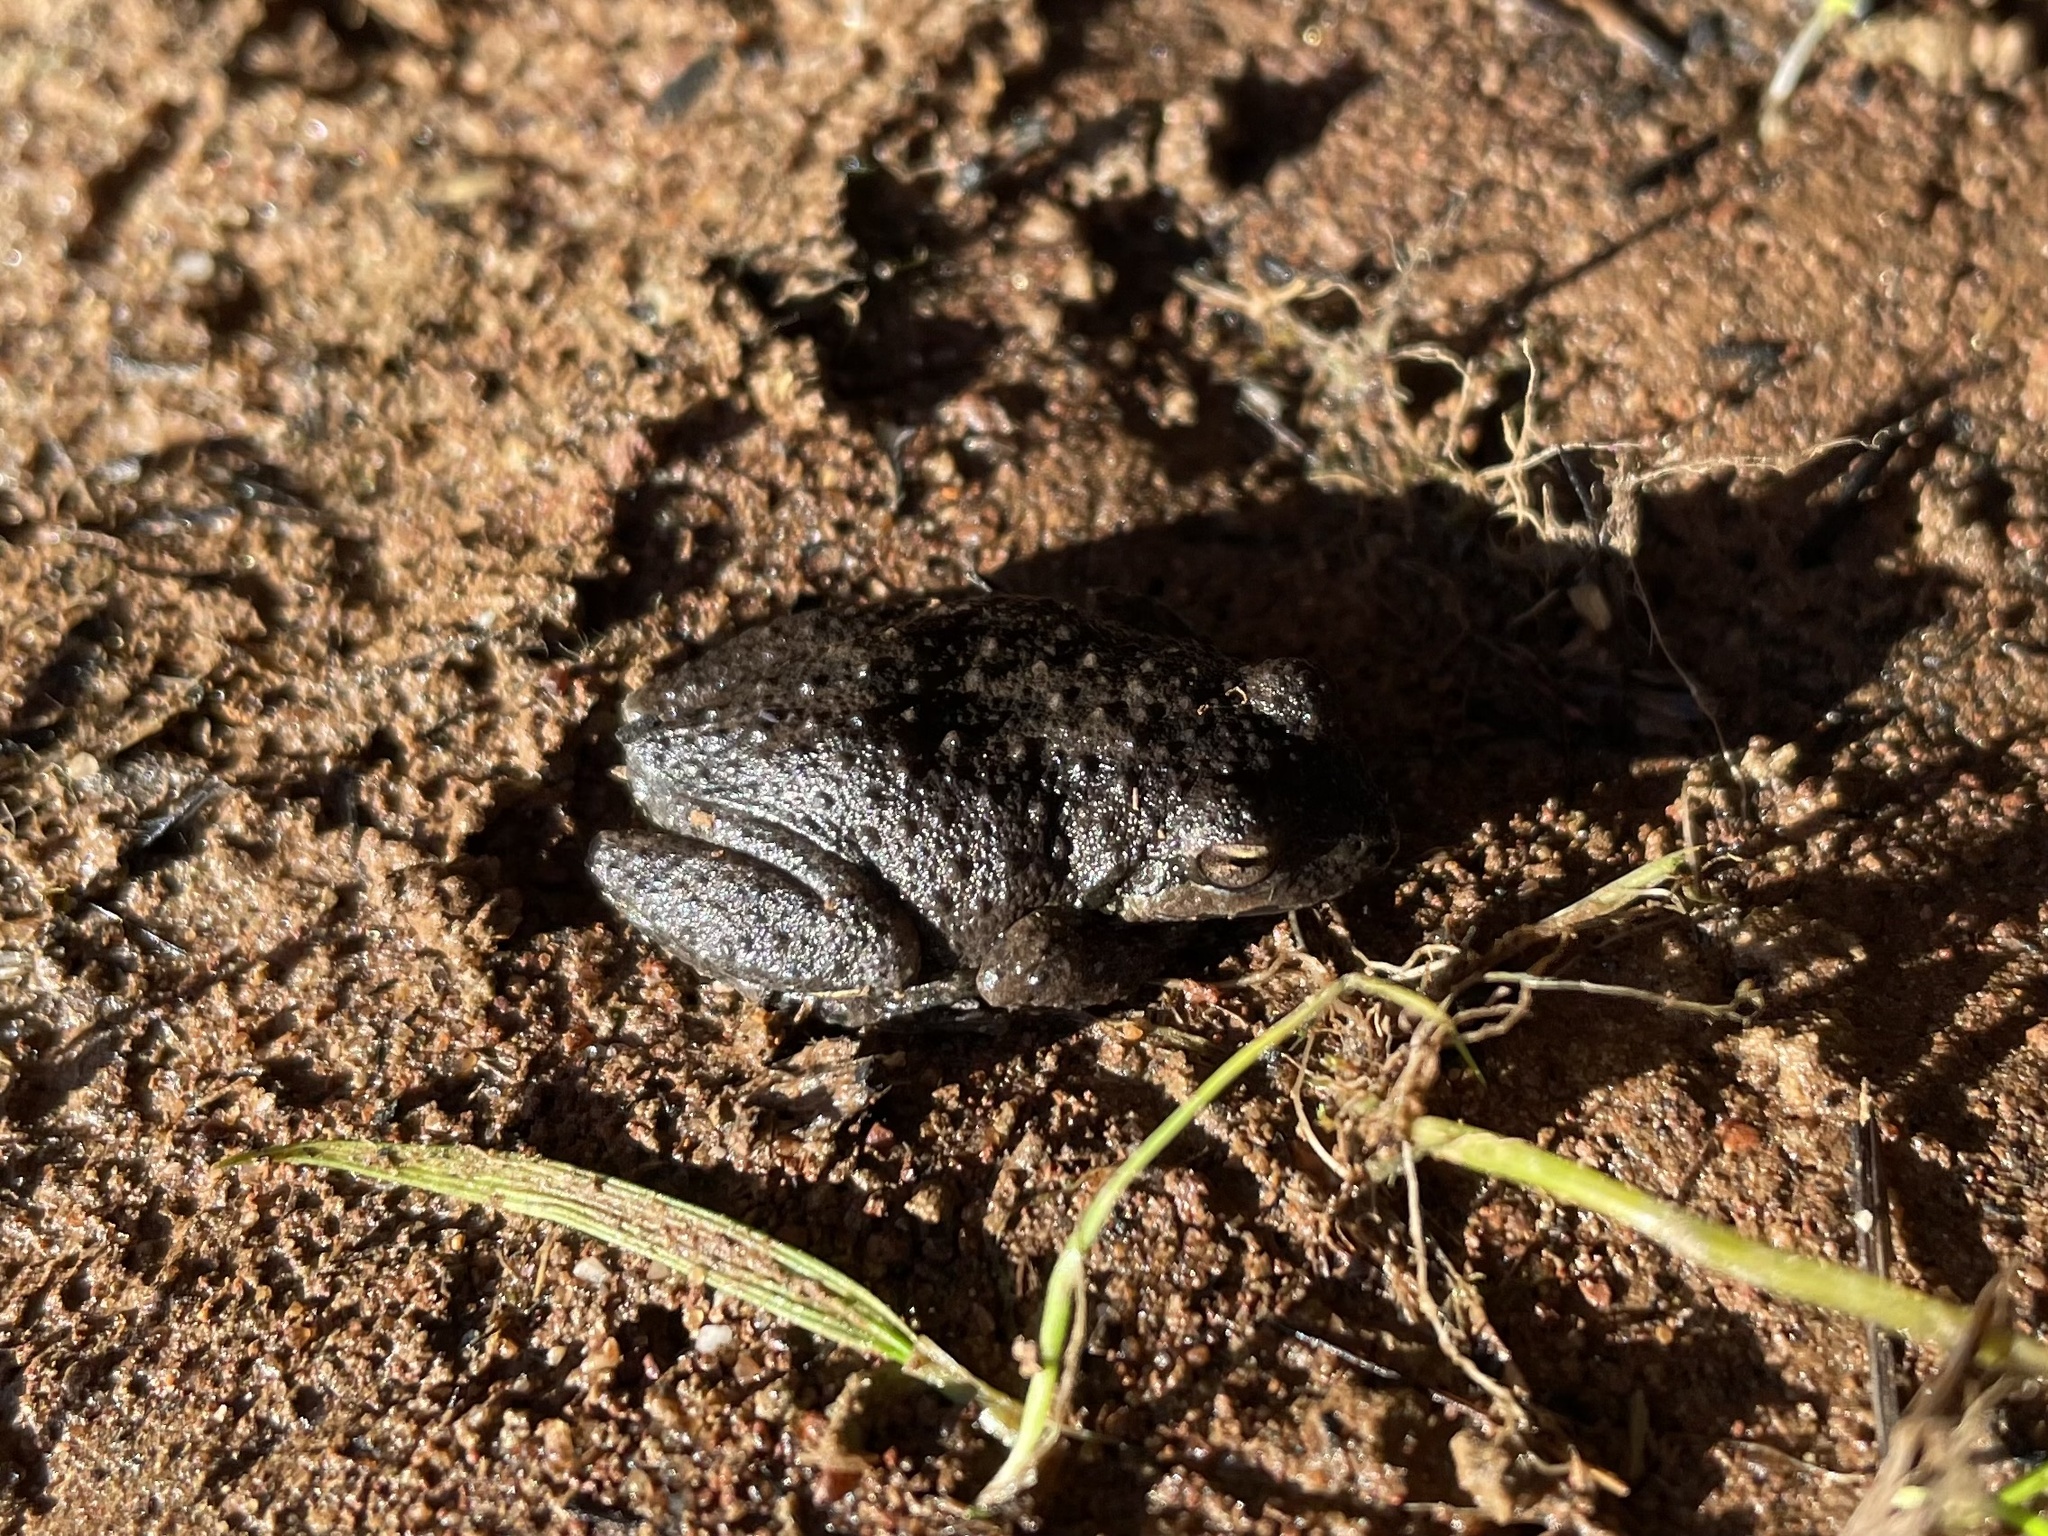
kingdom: Animalia
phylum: Chordata
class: Amphibia
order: Anura
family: Hylidae
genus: Pseudacris
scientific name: Pseudacris regilla
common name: Pacific chorus frog
